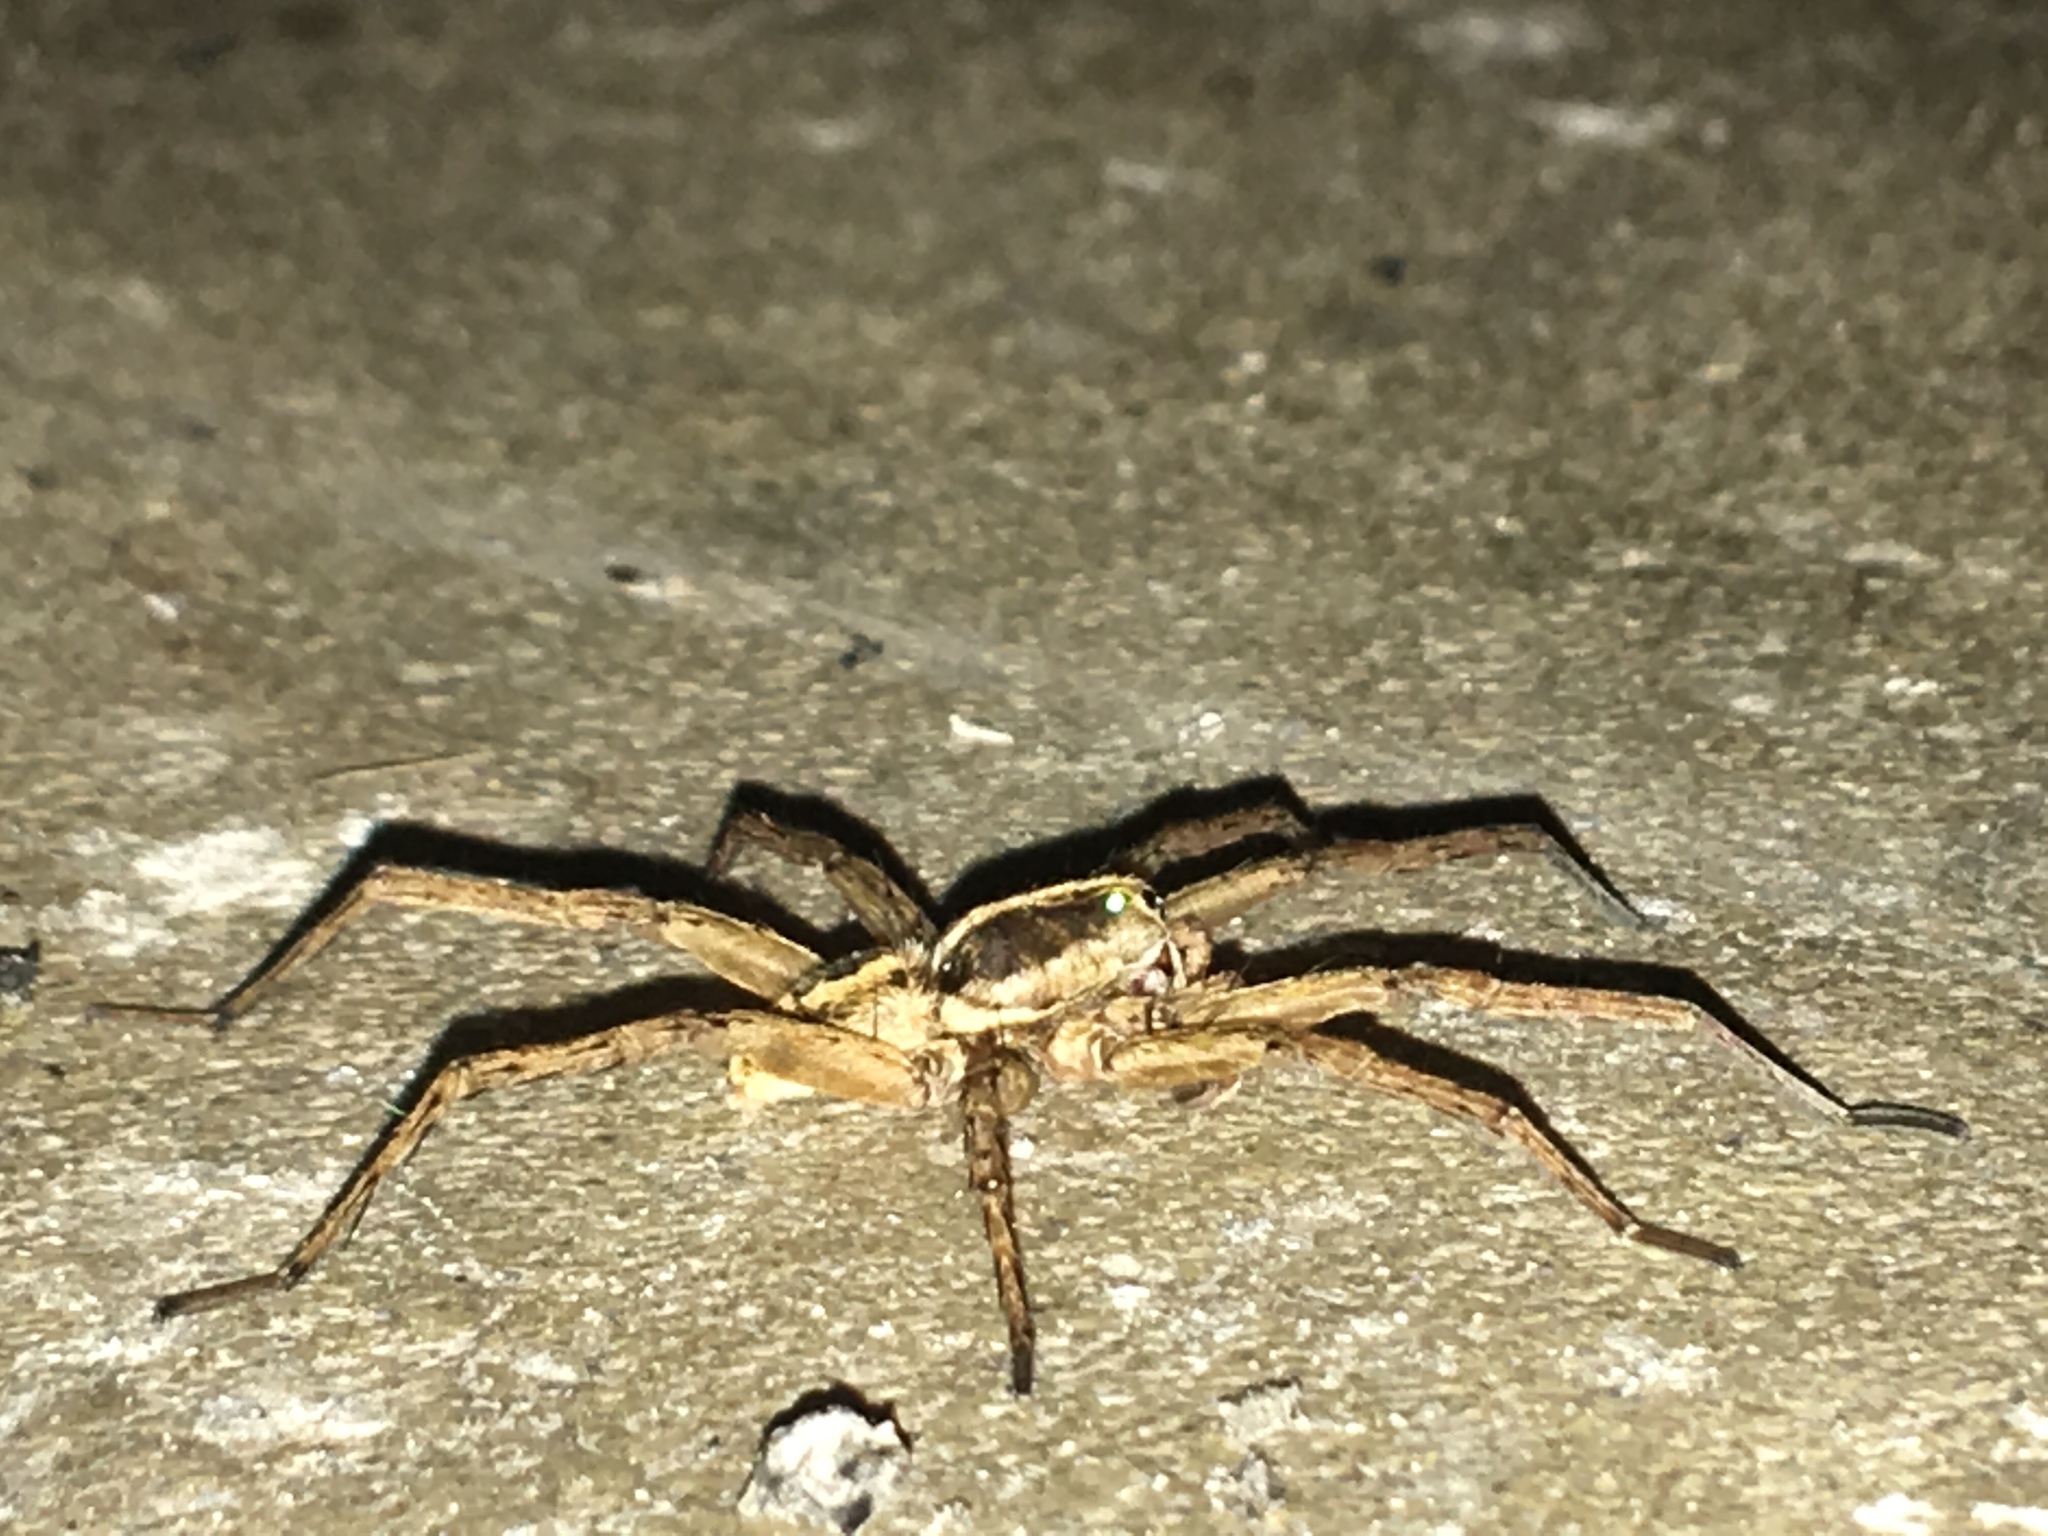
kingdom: Animalia
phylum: Arthropoda
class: Arachnida
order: Araneae
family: Lycosidae
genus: Tigrosa
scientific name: Tigrosa annexa
